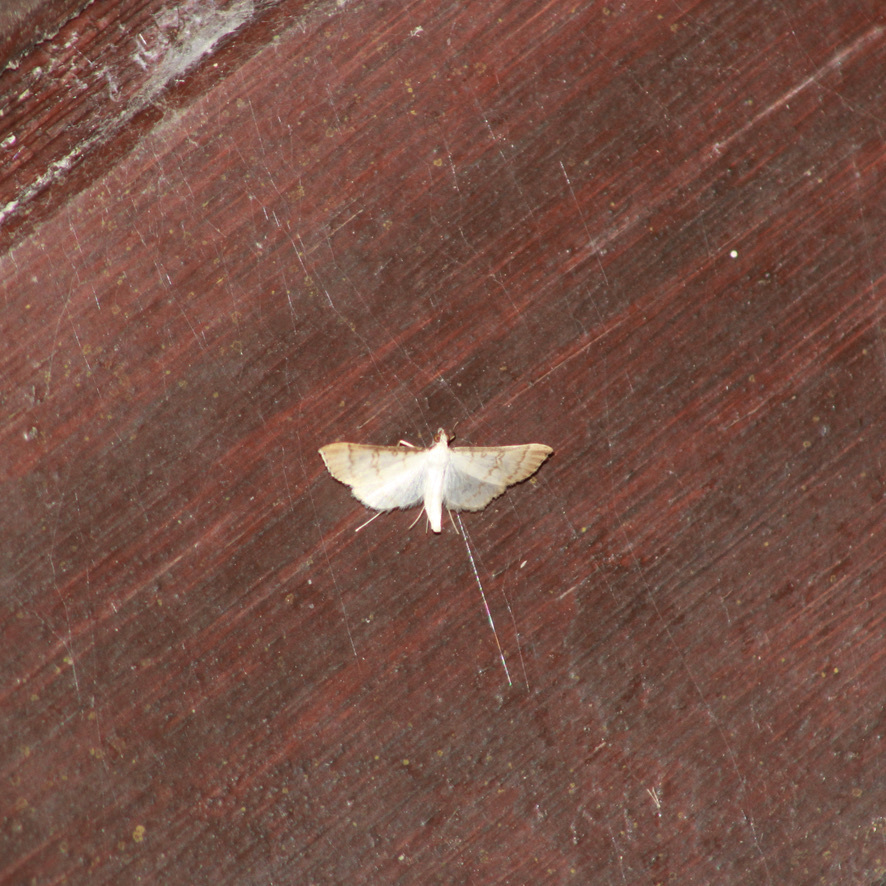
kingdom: Animalia
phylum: Arthropoda
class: Insecta
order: Lepidoptera
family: Crambidae
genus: Stenia
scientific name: Stenia colubralis
